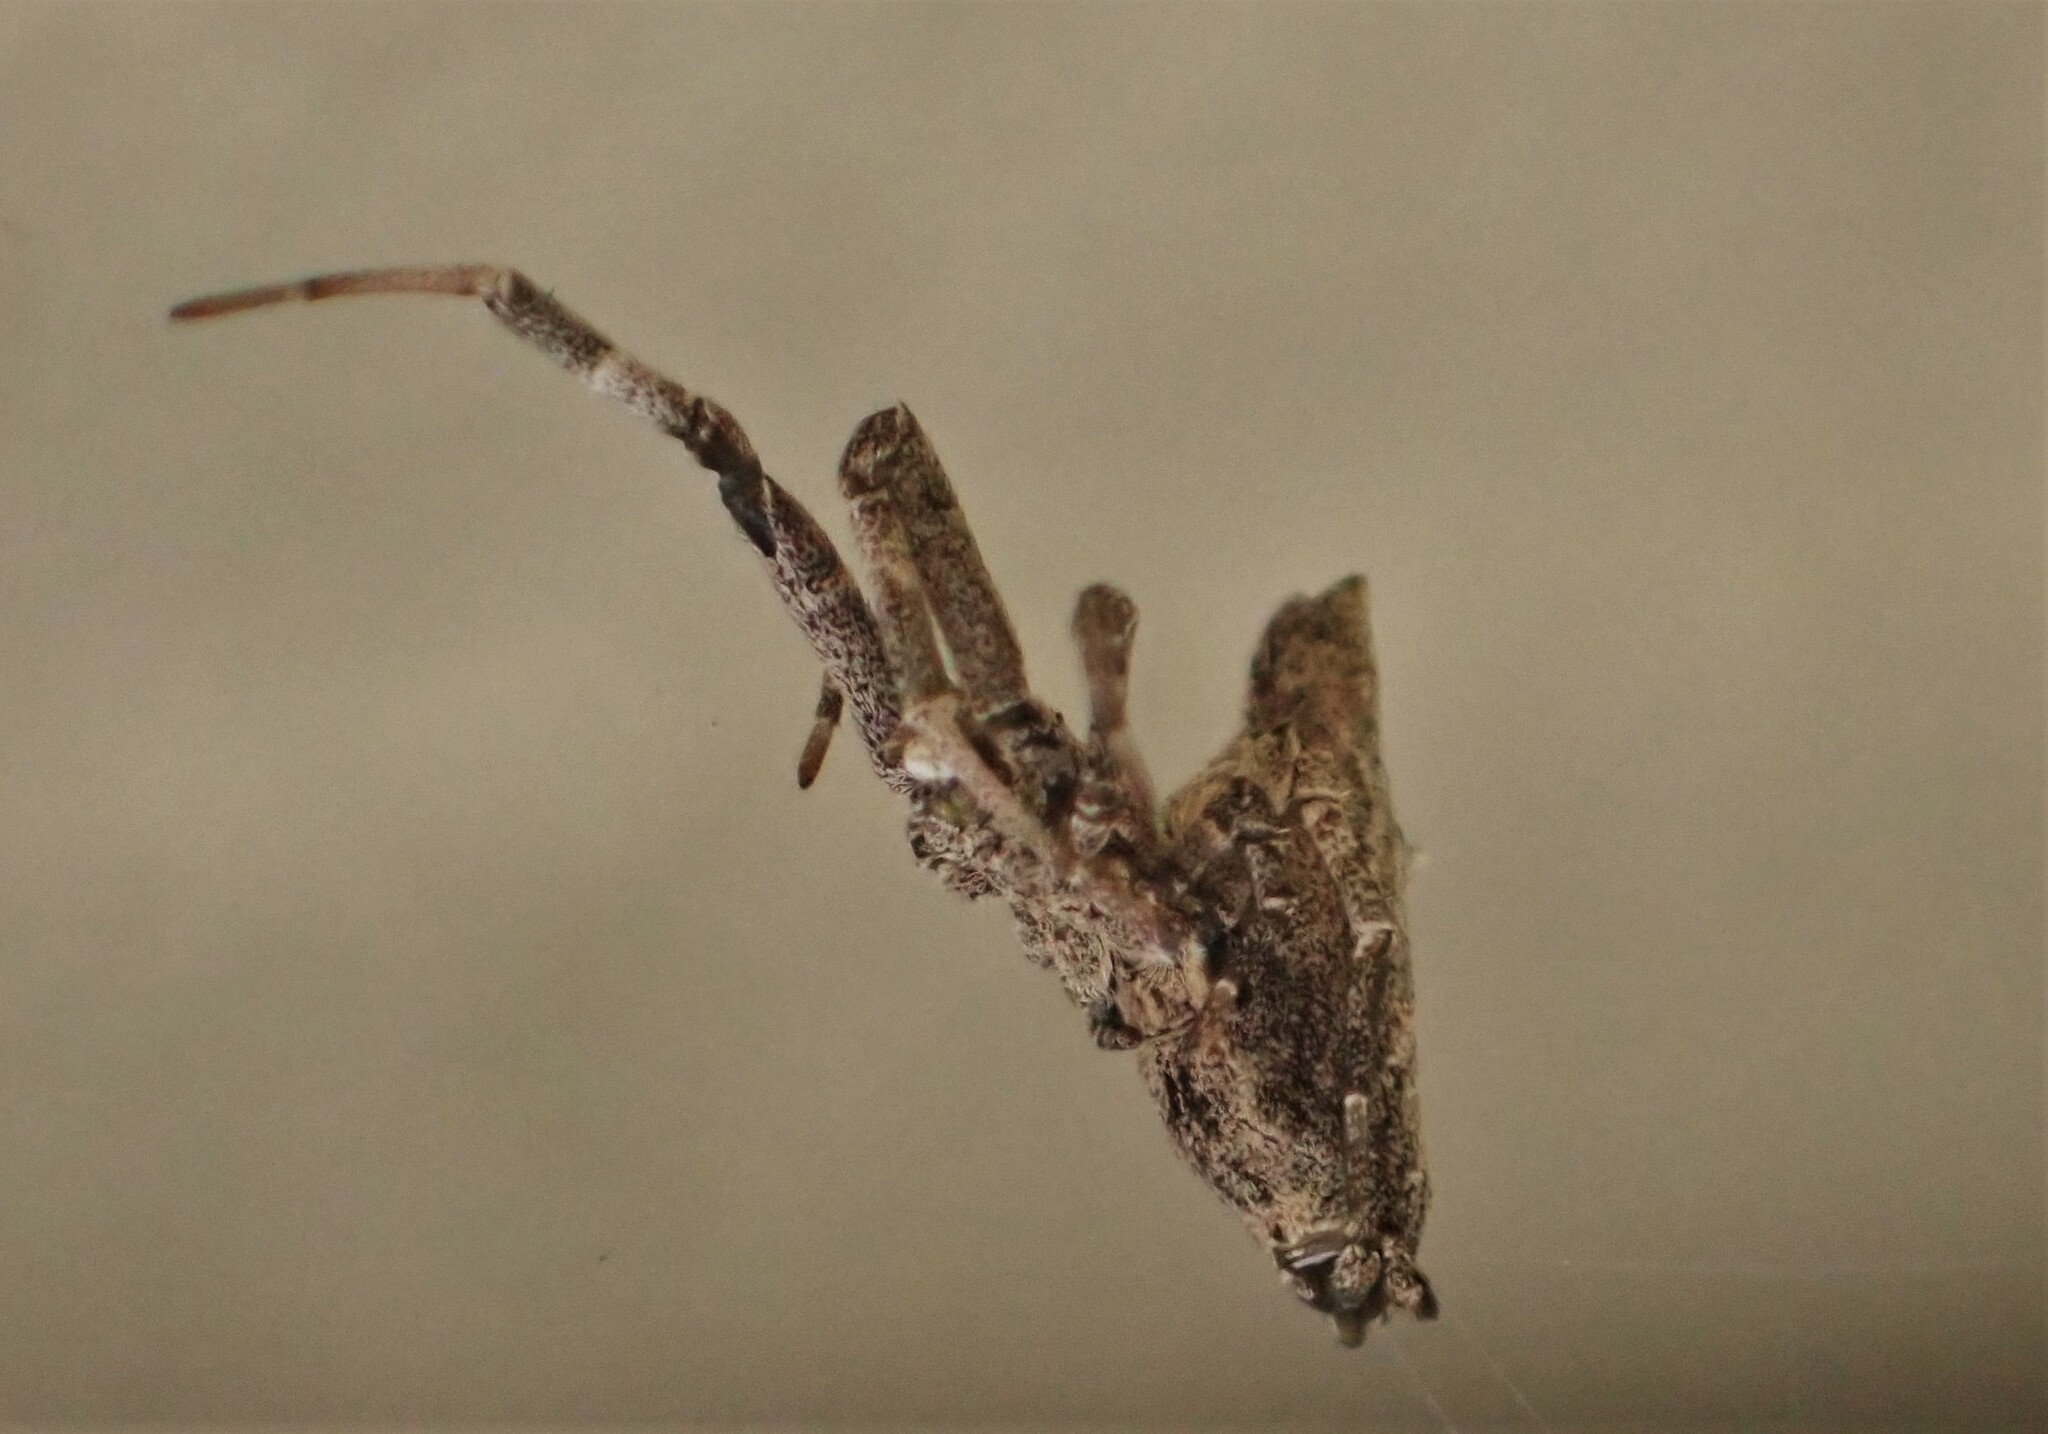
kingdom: Animalia
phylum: Arthropoda
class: Arachnida
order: Araneae
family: Uloboridae
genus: Philoponella
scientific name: Philoponella congregabilis
